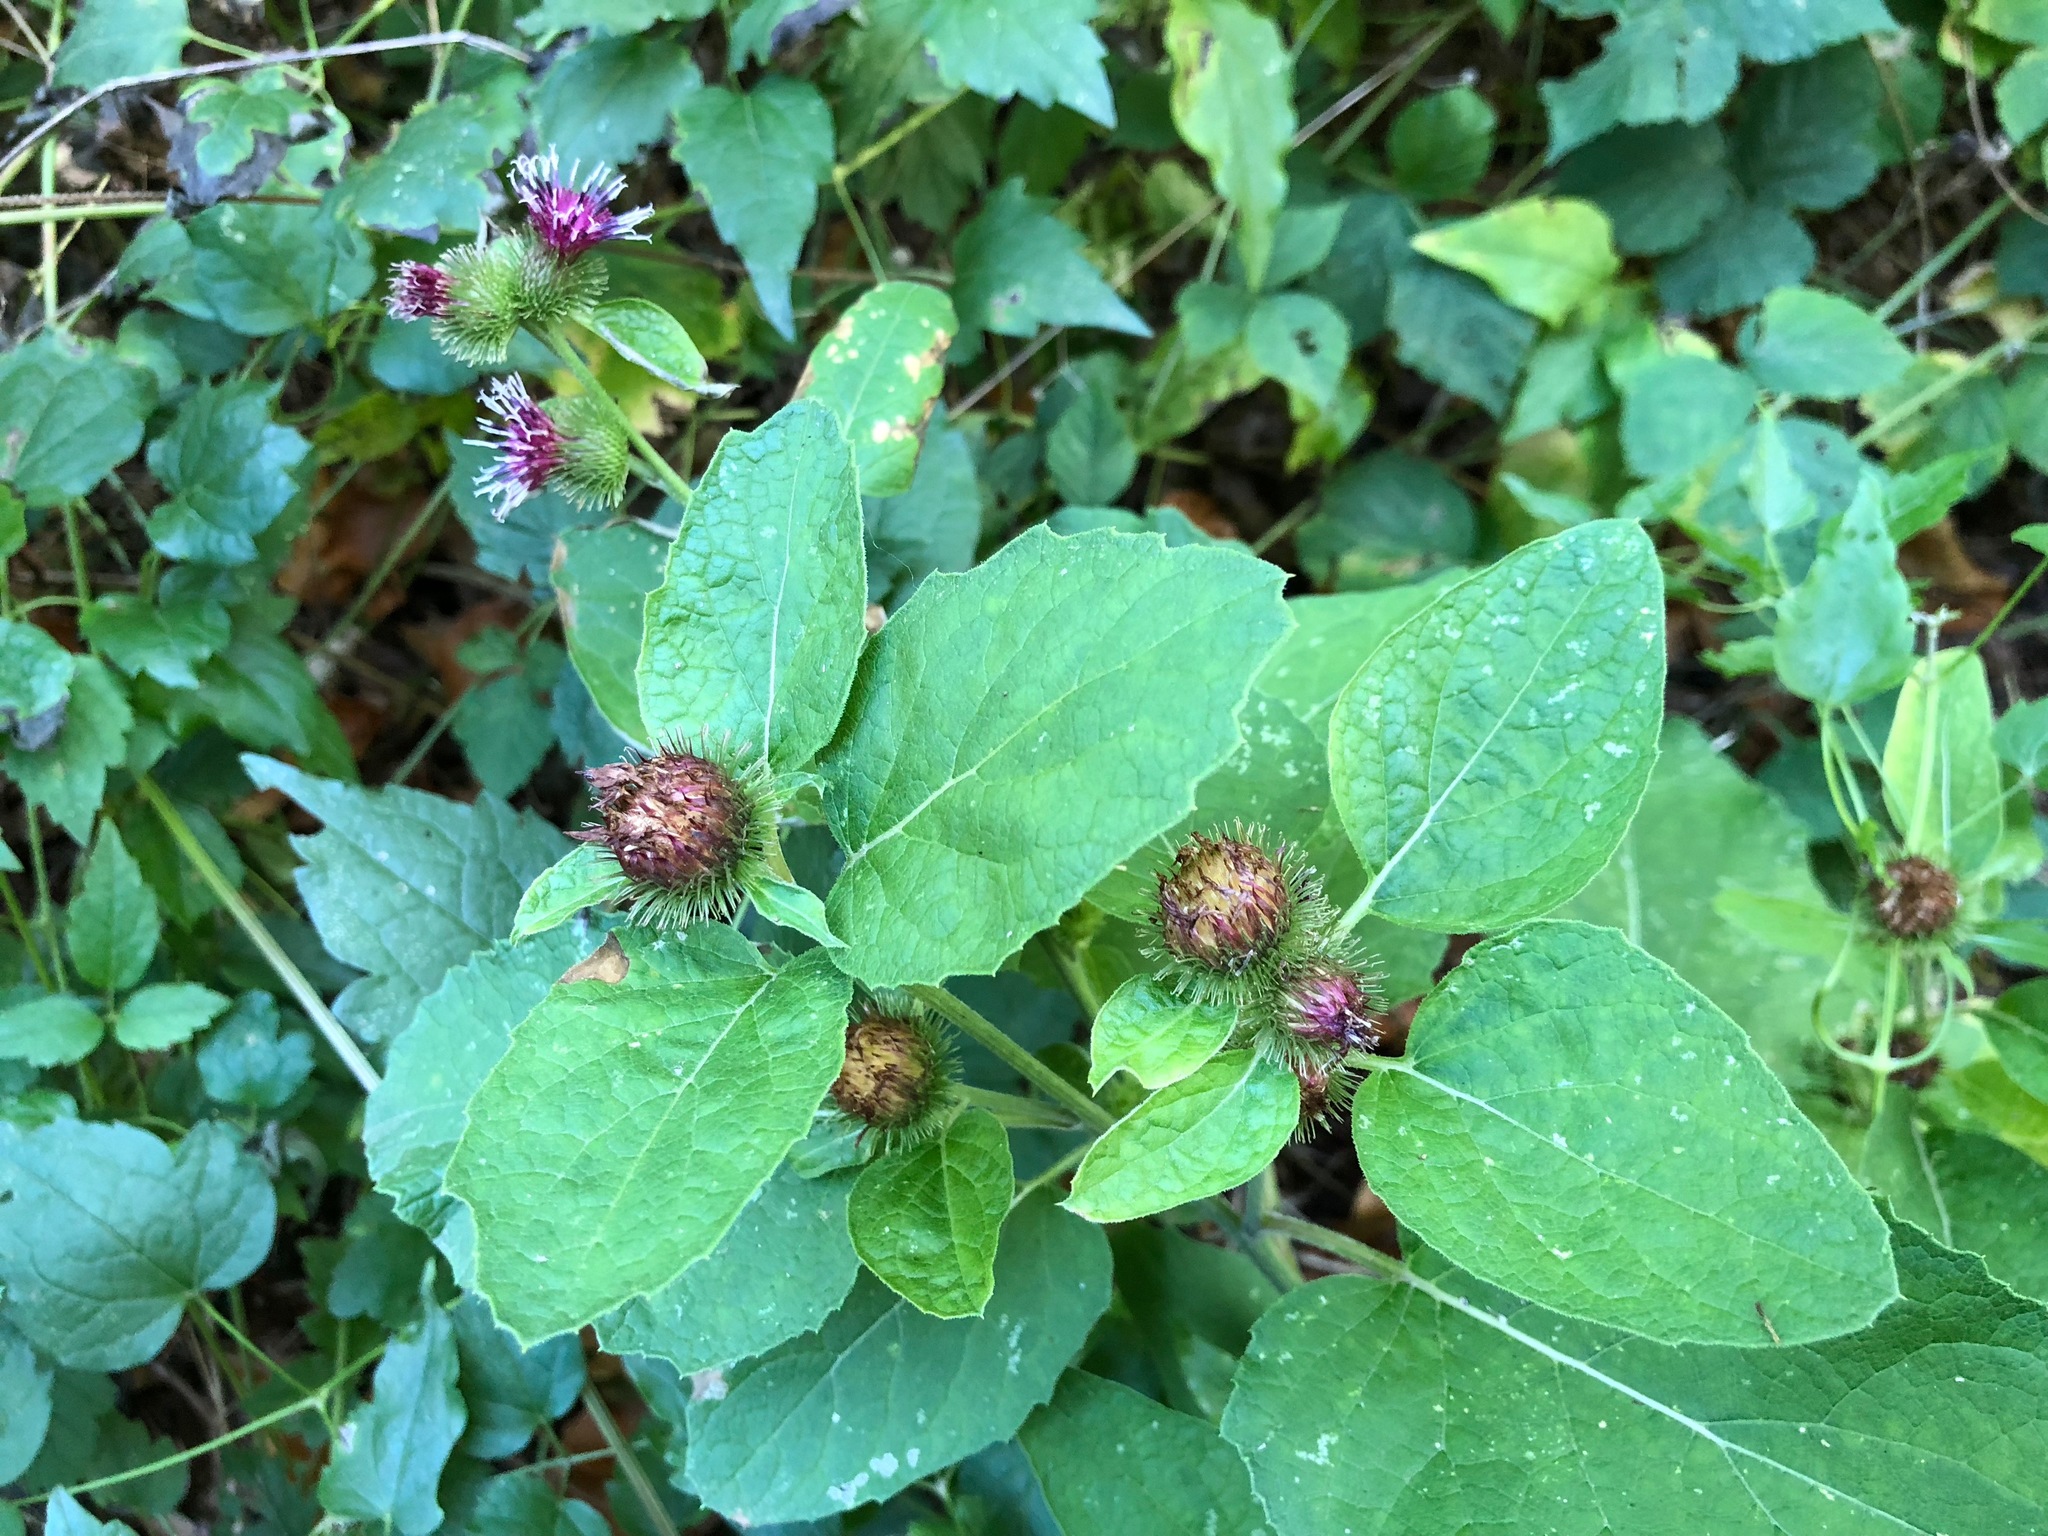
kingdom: Plantae
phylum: Tracheophyta
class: Magnoliopsida
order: Asterales
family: Asteraceae
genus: Arctium
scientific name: Arctium minus
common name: Lesser burdock
